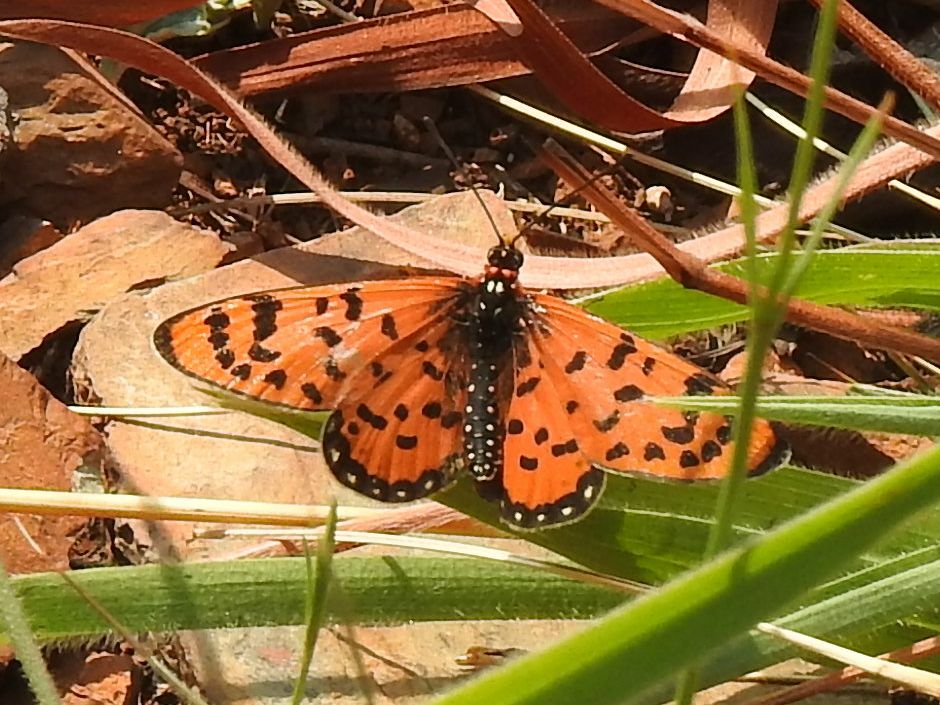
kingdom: Animalia
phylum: Arthropoda
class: Insecta
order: Lepidoptera
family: Nymphalidae
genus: Rubraea
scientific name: Rubraea
